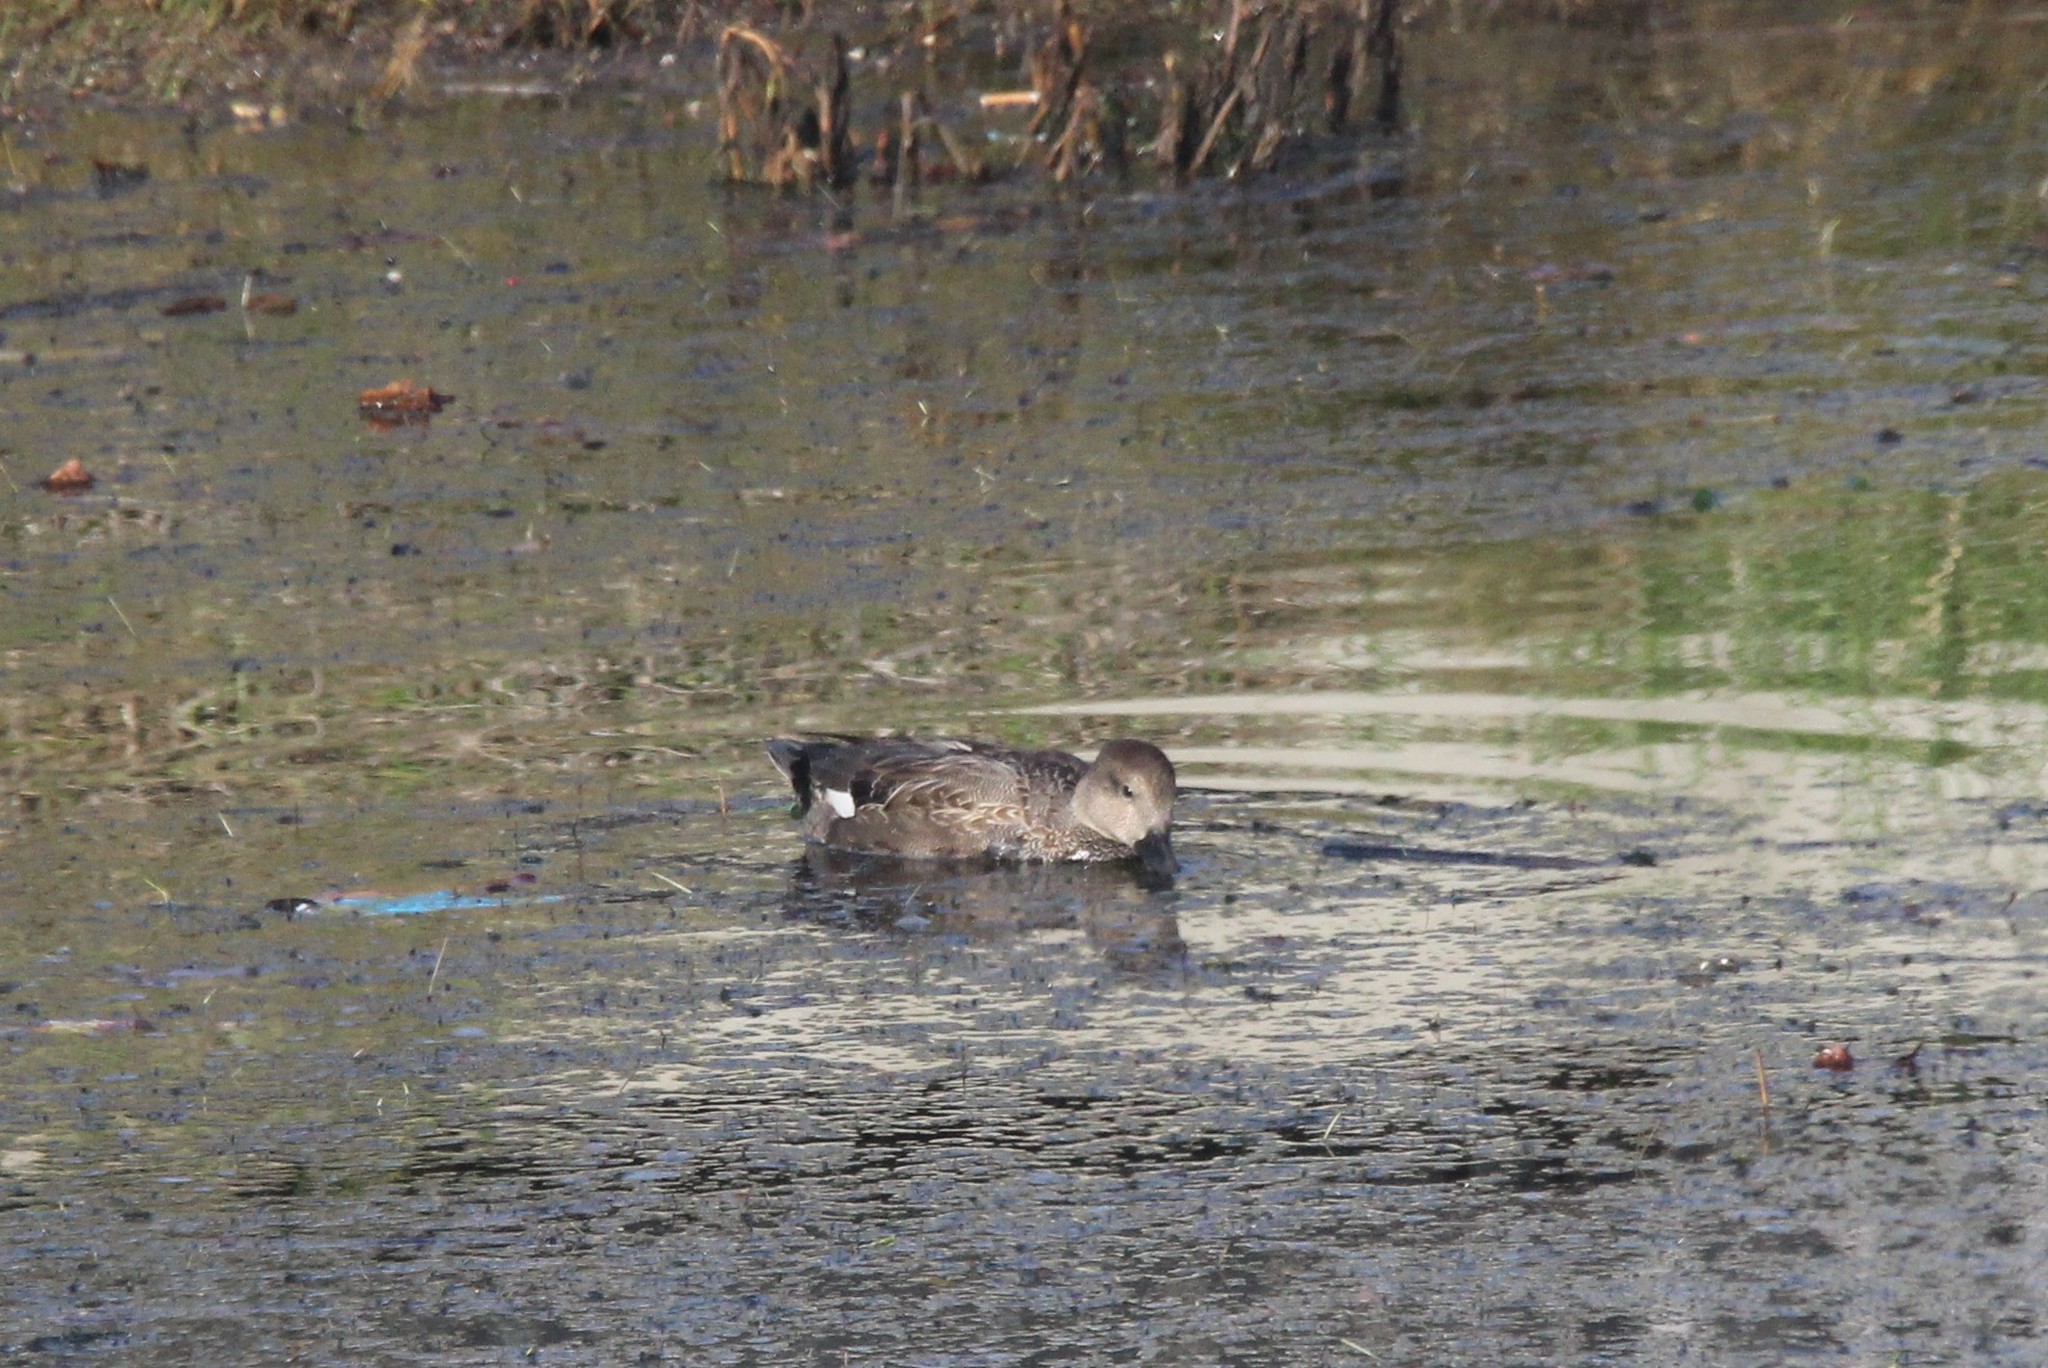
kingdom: Animalia
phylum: Chordata
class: Aves
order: Anseriformes
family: Anatidae
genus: Mareca
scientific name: Mareca strepera
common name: Gadwall
